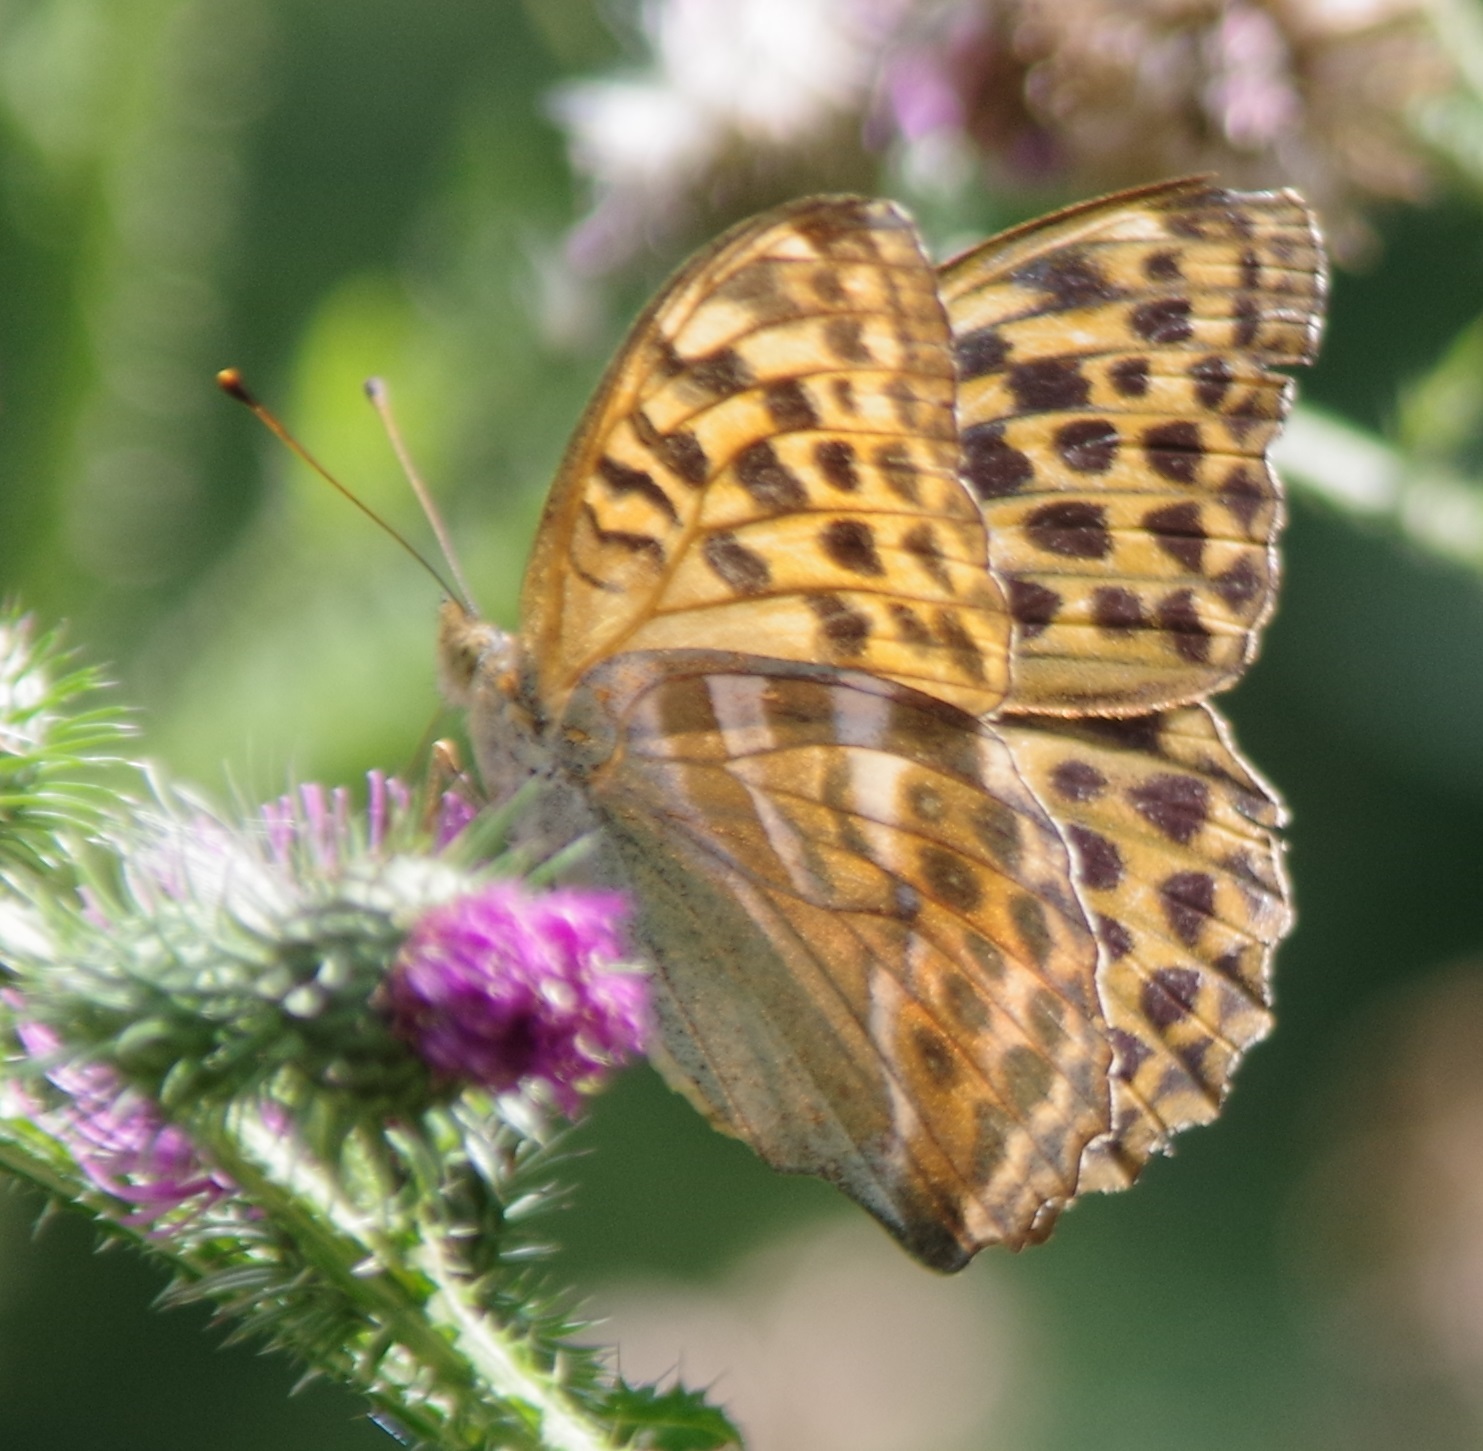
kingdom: Animalia
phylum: Arthropoda
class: Insecta
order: Lepidoptera
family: Nymphalidae
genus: Argynnis
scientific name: Argynnis paphia
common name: Silver-washed fritillary
